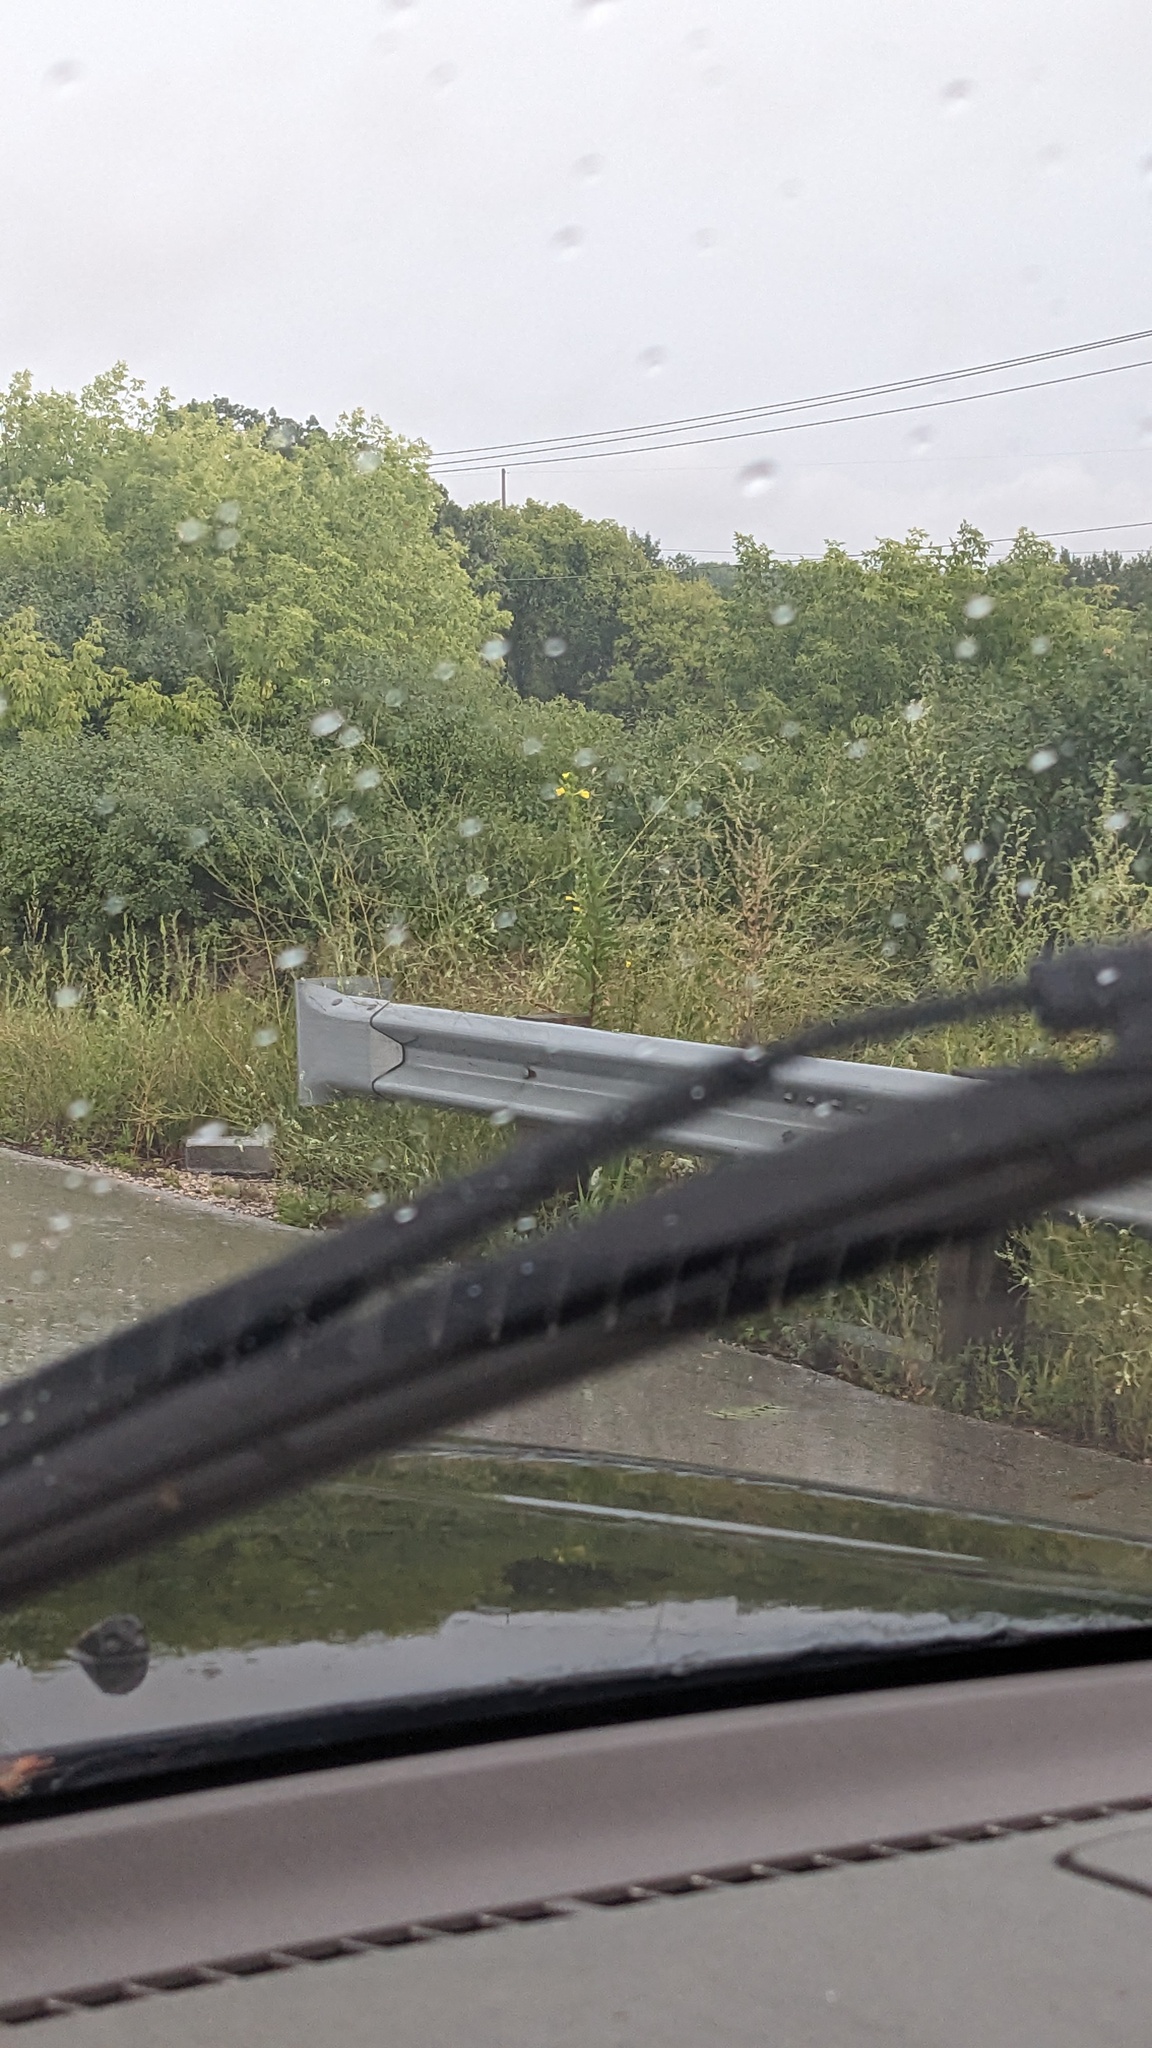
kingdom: Plantae
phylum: Tracheophyta
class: Magnoliopsida
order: Myrtales
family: Onagraceae
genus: Oenothera
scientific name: Oenothera
